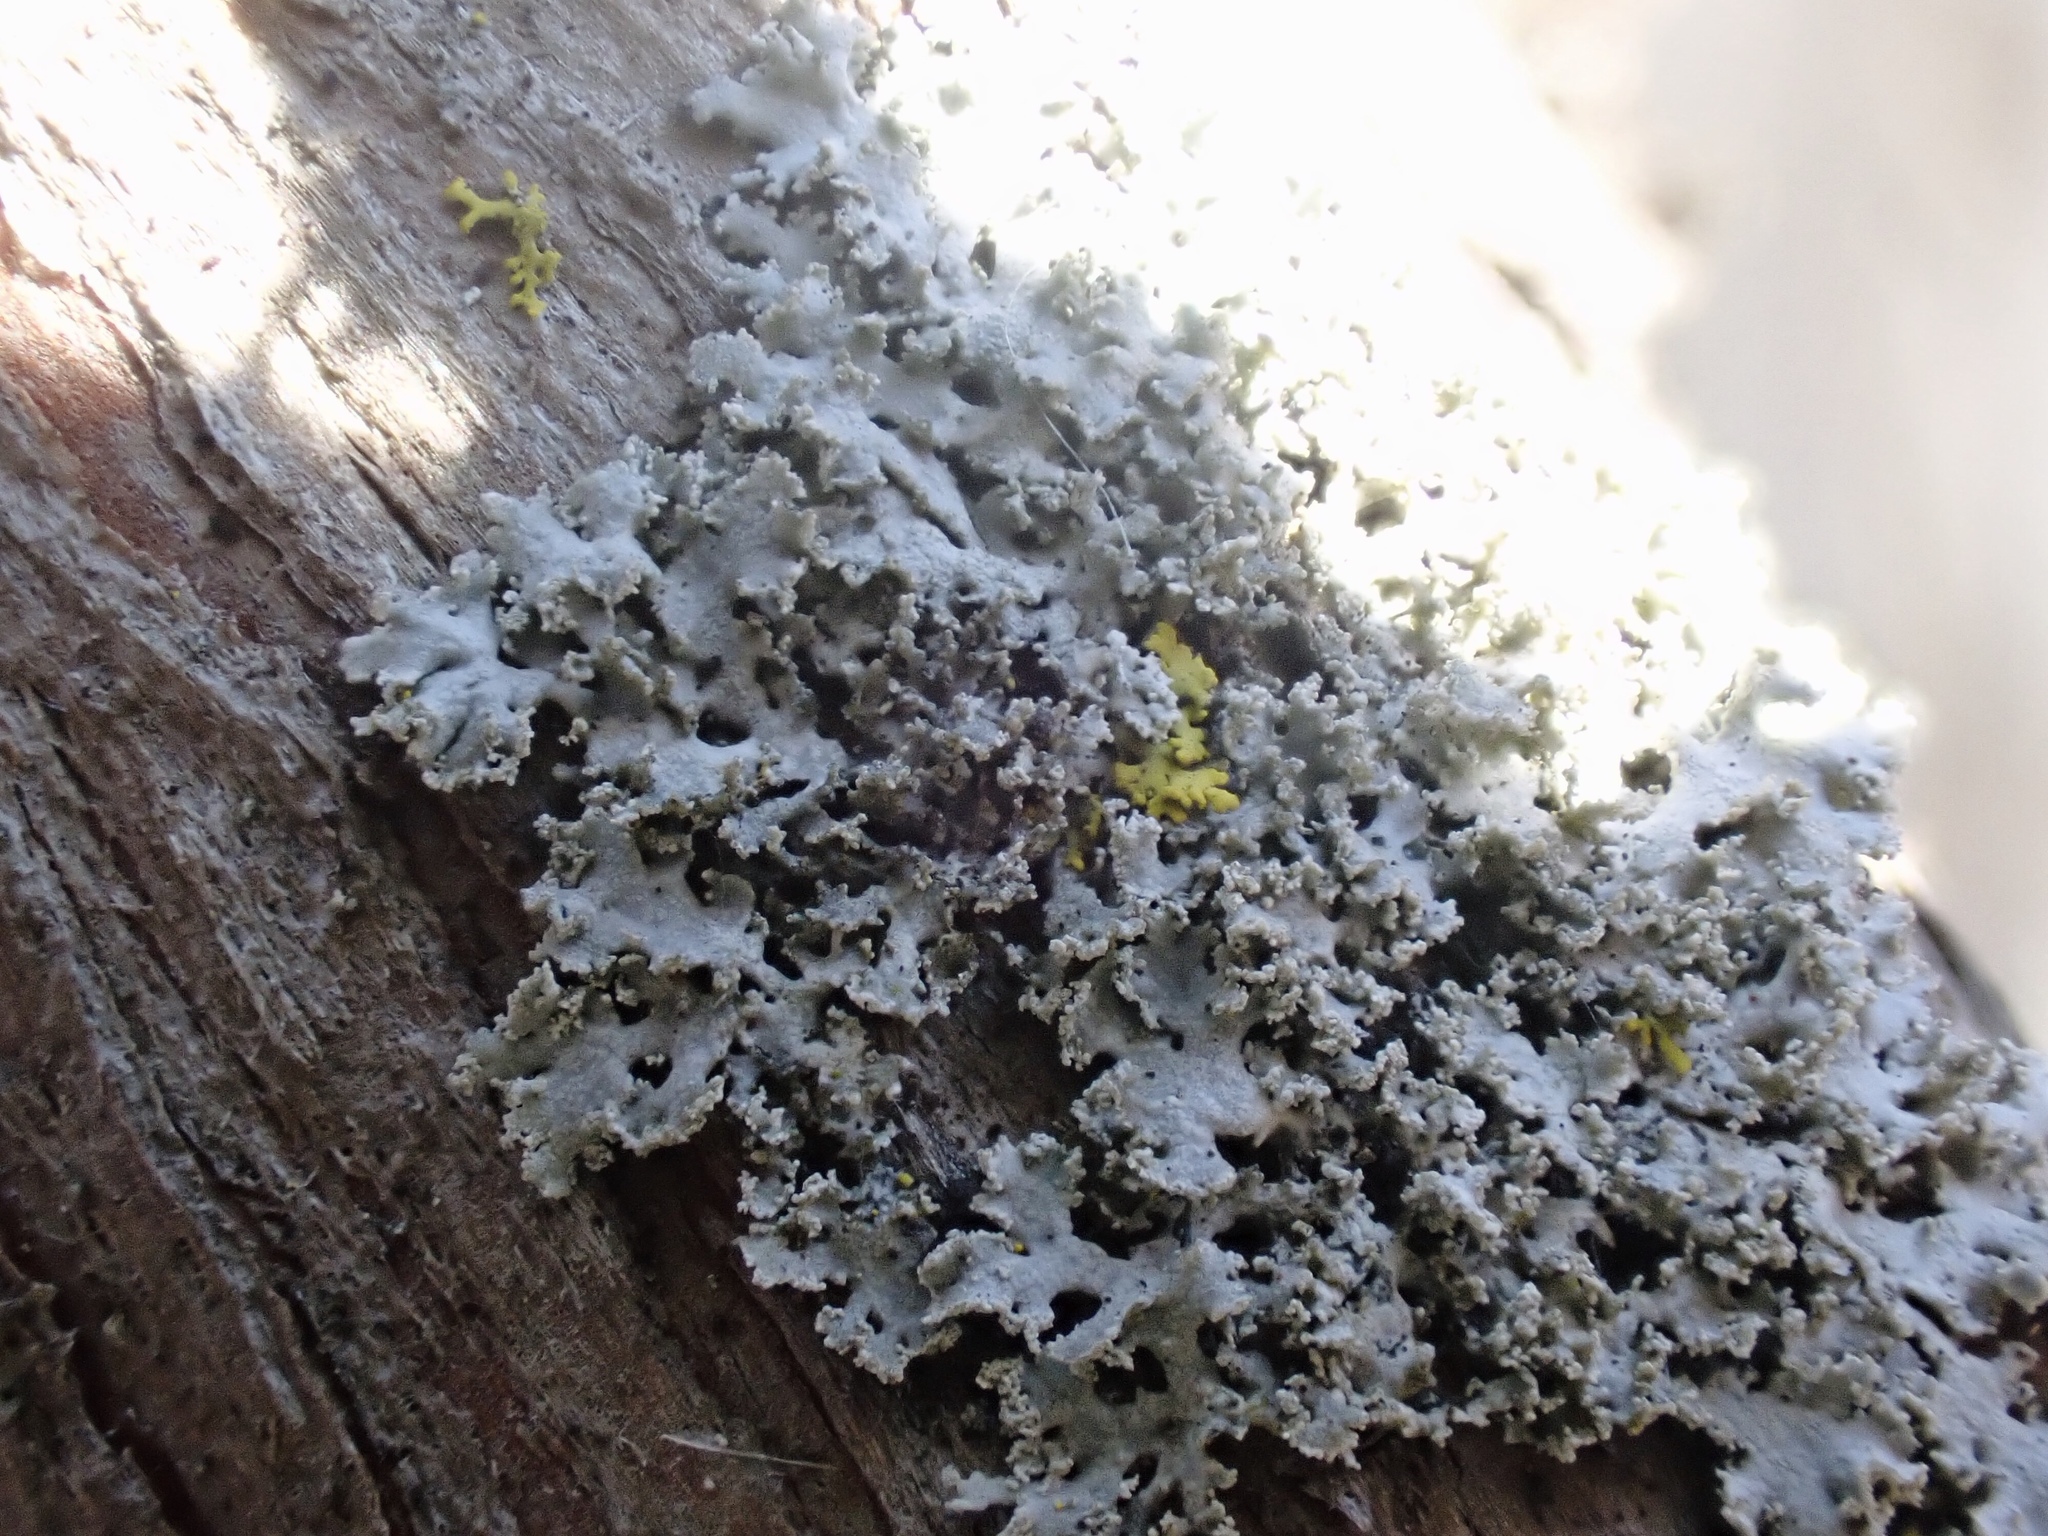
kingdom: Fungi
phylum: Ascomycota
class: Lecanoromycetes
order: Caliciales
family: Physciaceae
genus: Physcia
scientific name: Physcia millegrana
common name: Rosette lichen
